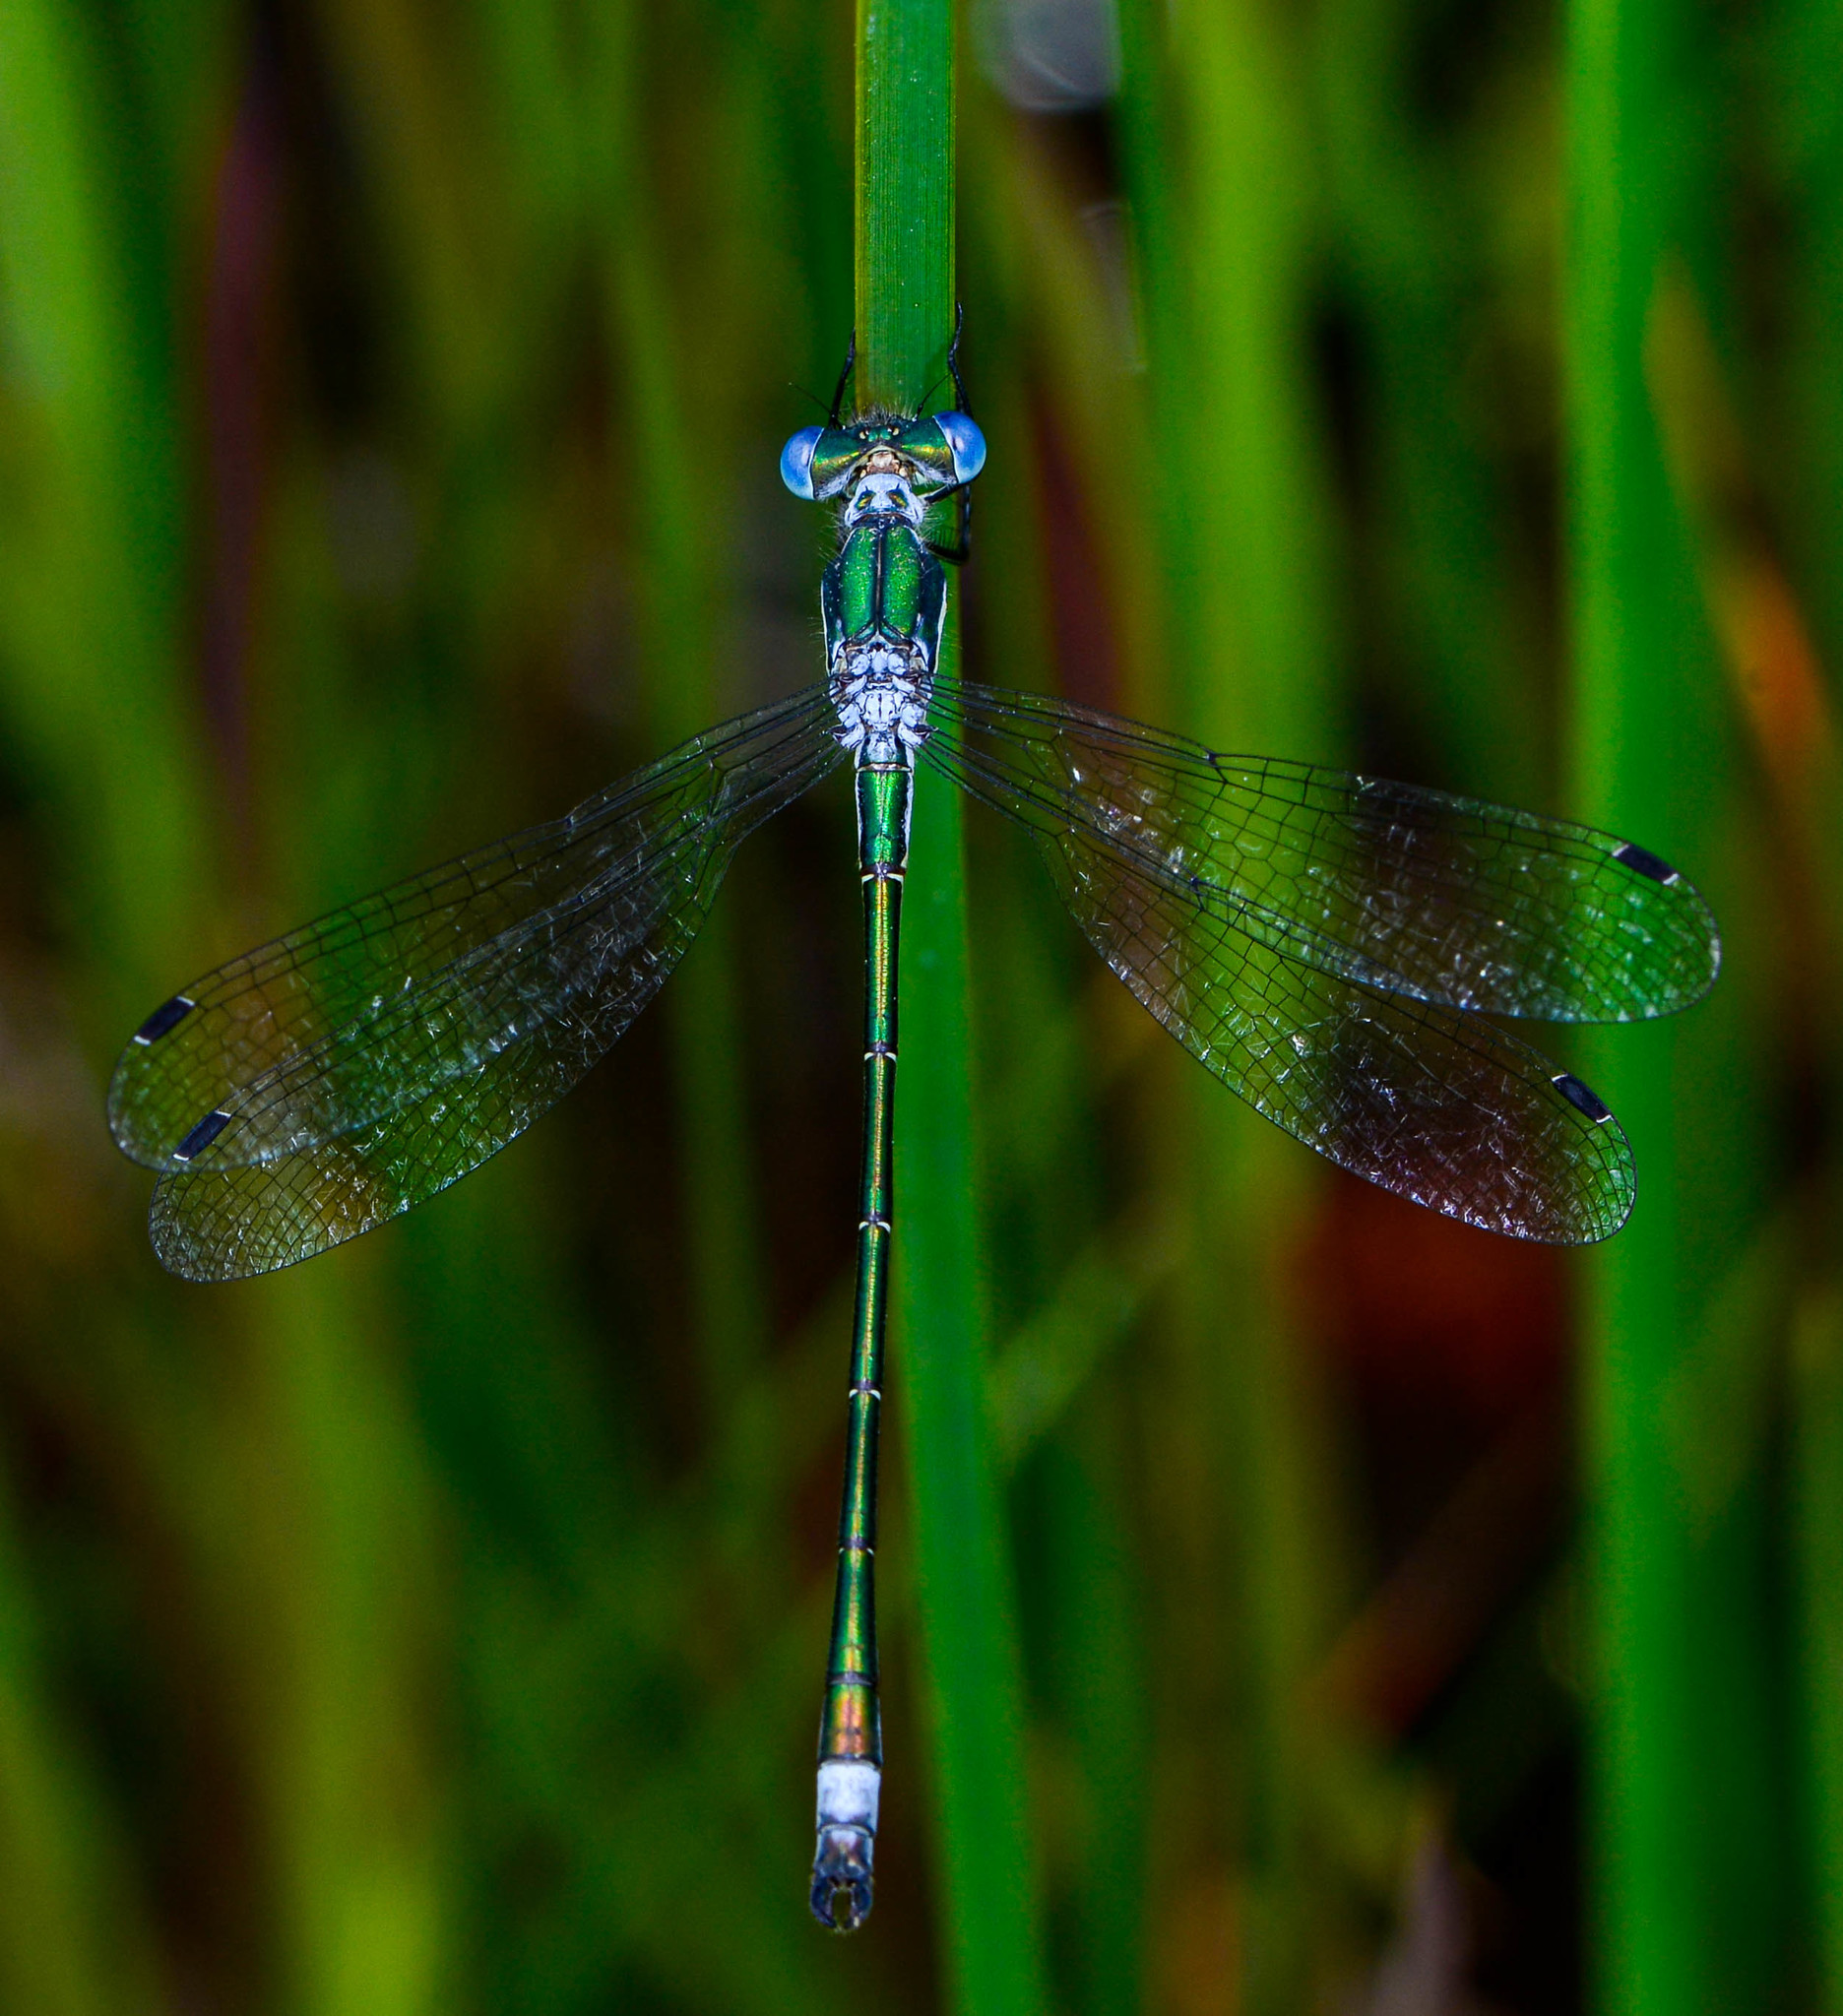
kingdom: Animalia
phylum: Arthropoda
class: Insecta
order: Odonata
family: Lestidae
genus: Lestes
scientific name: Lestes dryas
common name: Scarce emerald damselfly
